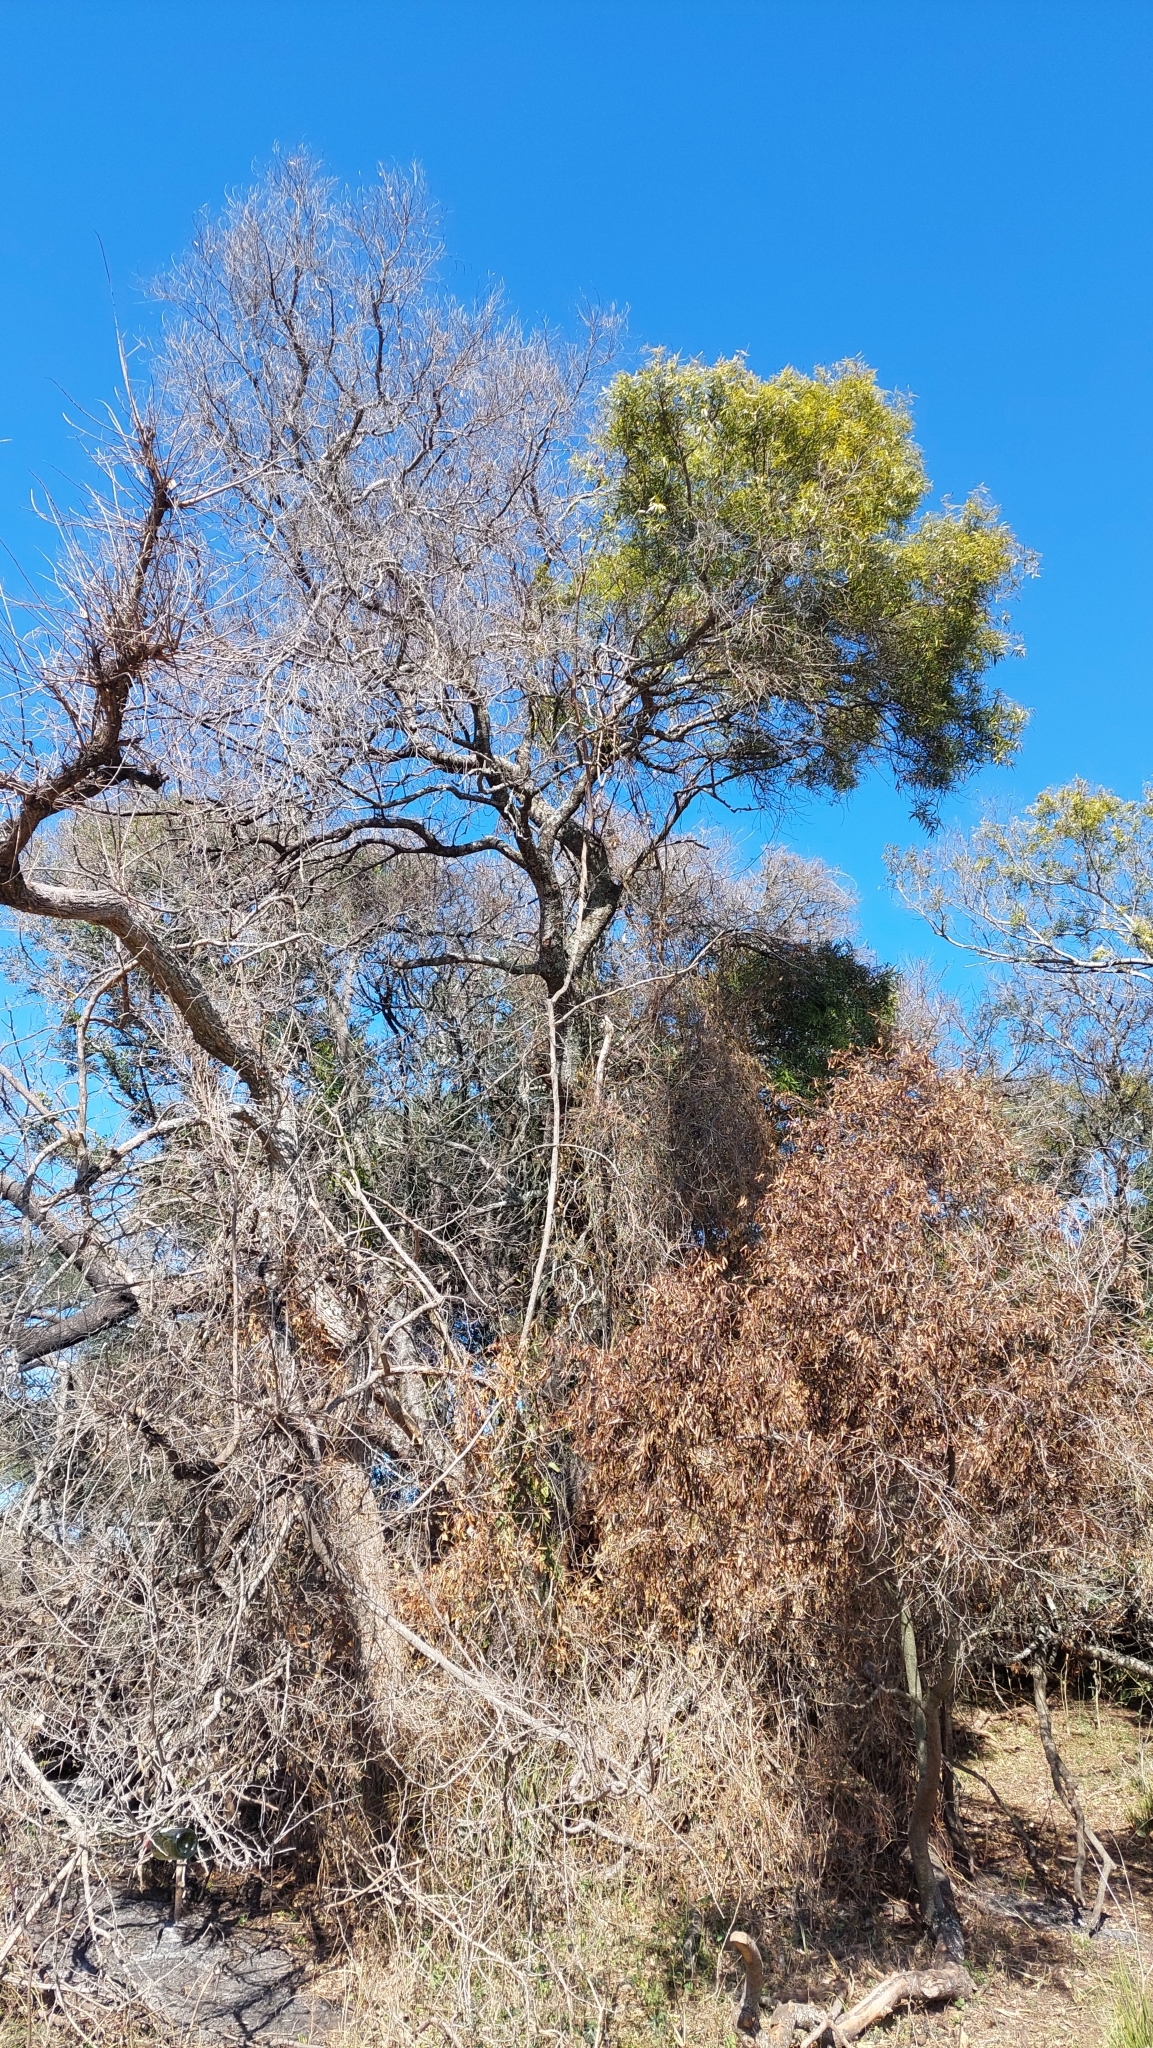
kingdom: Plantae
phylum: Tracheophyta
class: Magnoliopsida
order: Laurales
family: Lauraceae
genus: Nectandra
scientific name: Nectandra angustifolia
